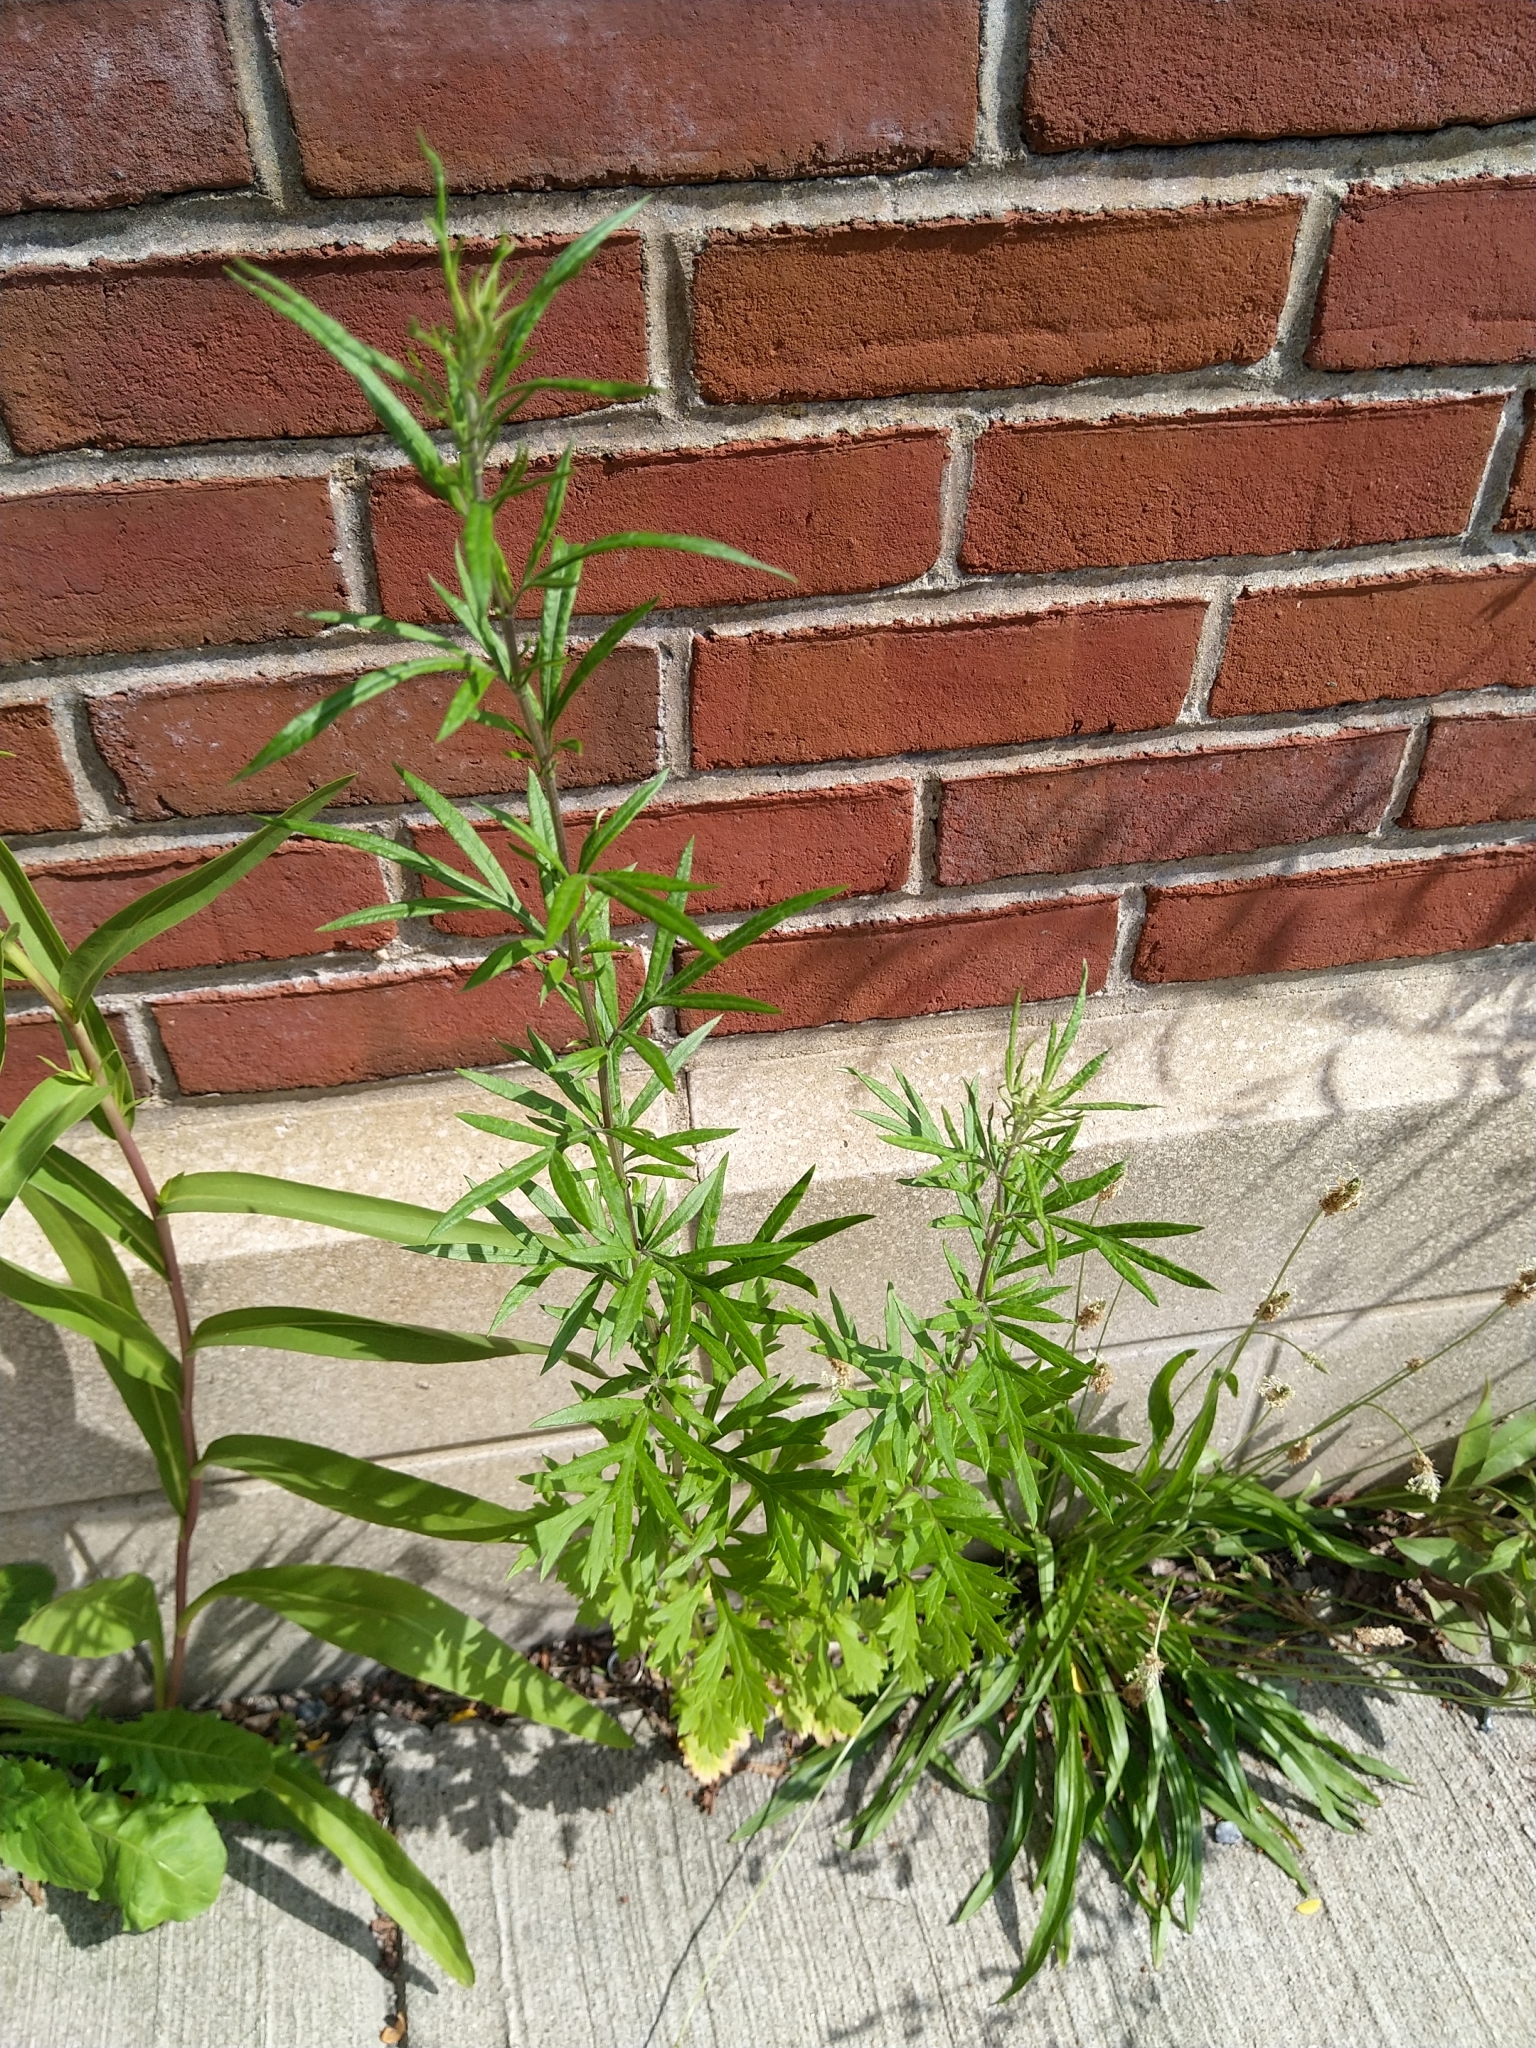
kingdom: Plantae
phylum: Tracheophyta
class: Magnoliopsida
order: Asterales
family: Asteraceae
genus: Artemisia
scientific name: Artemisia vulgaris
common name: Mugwort
